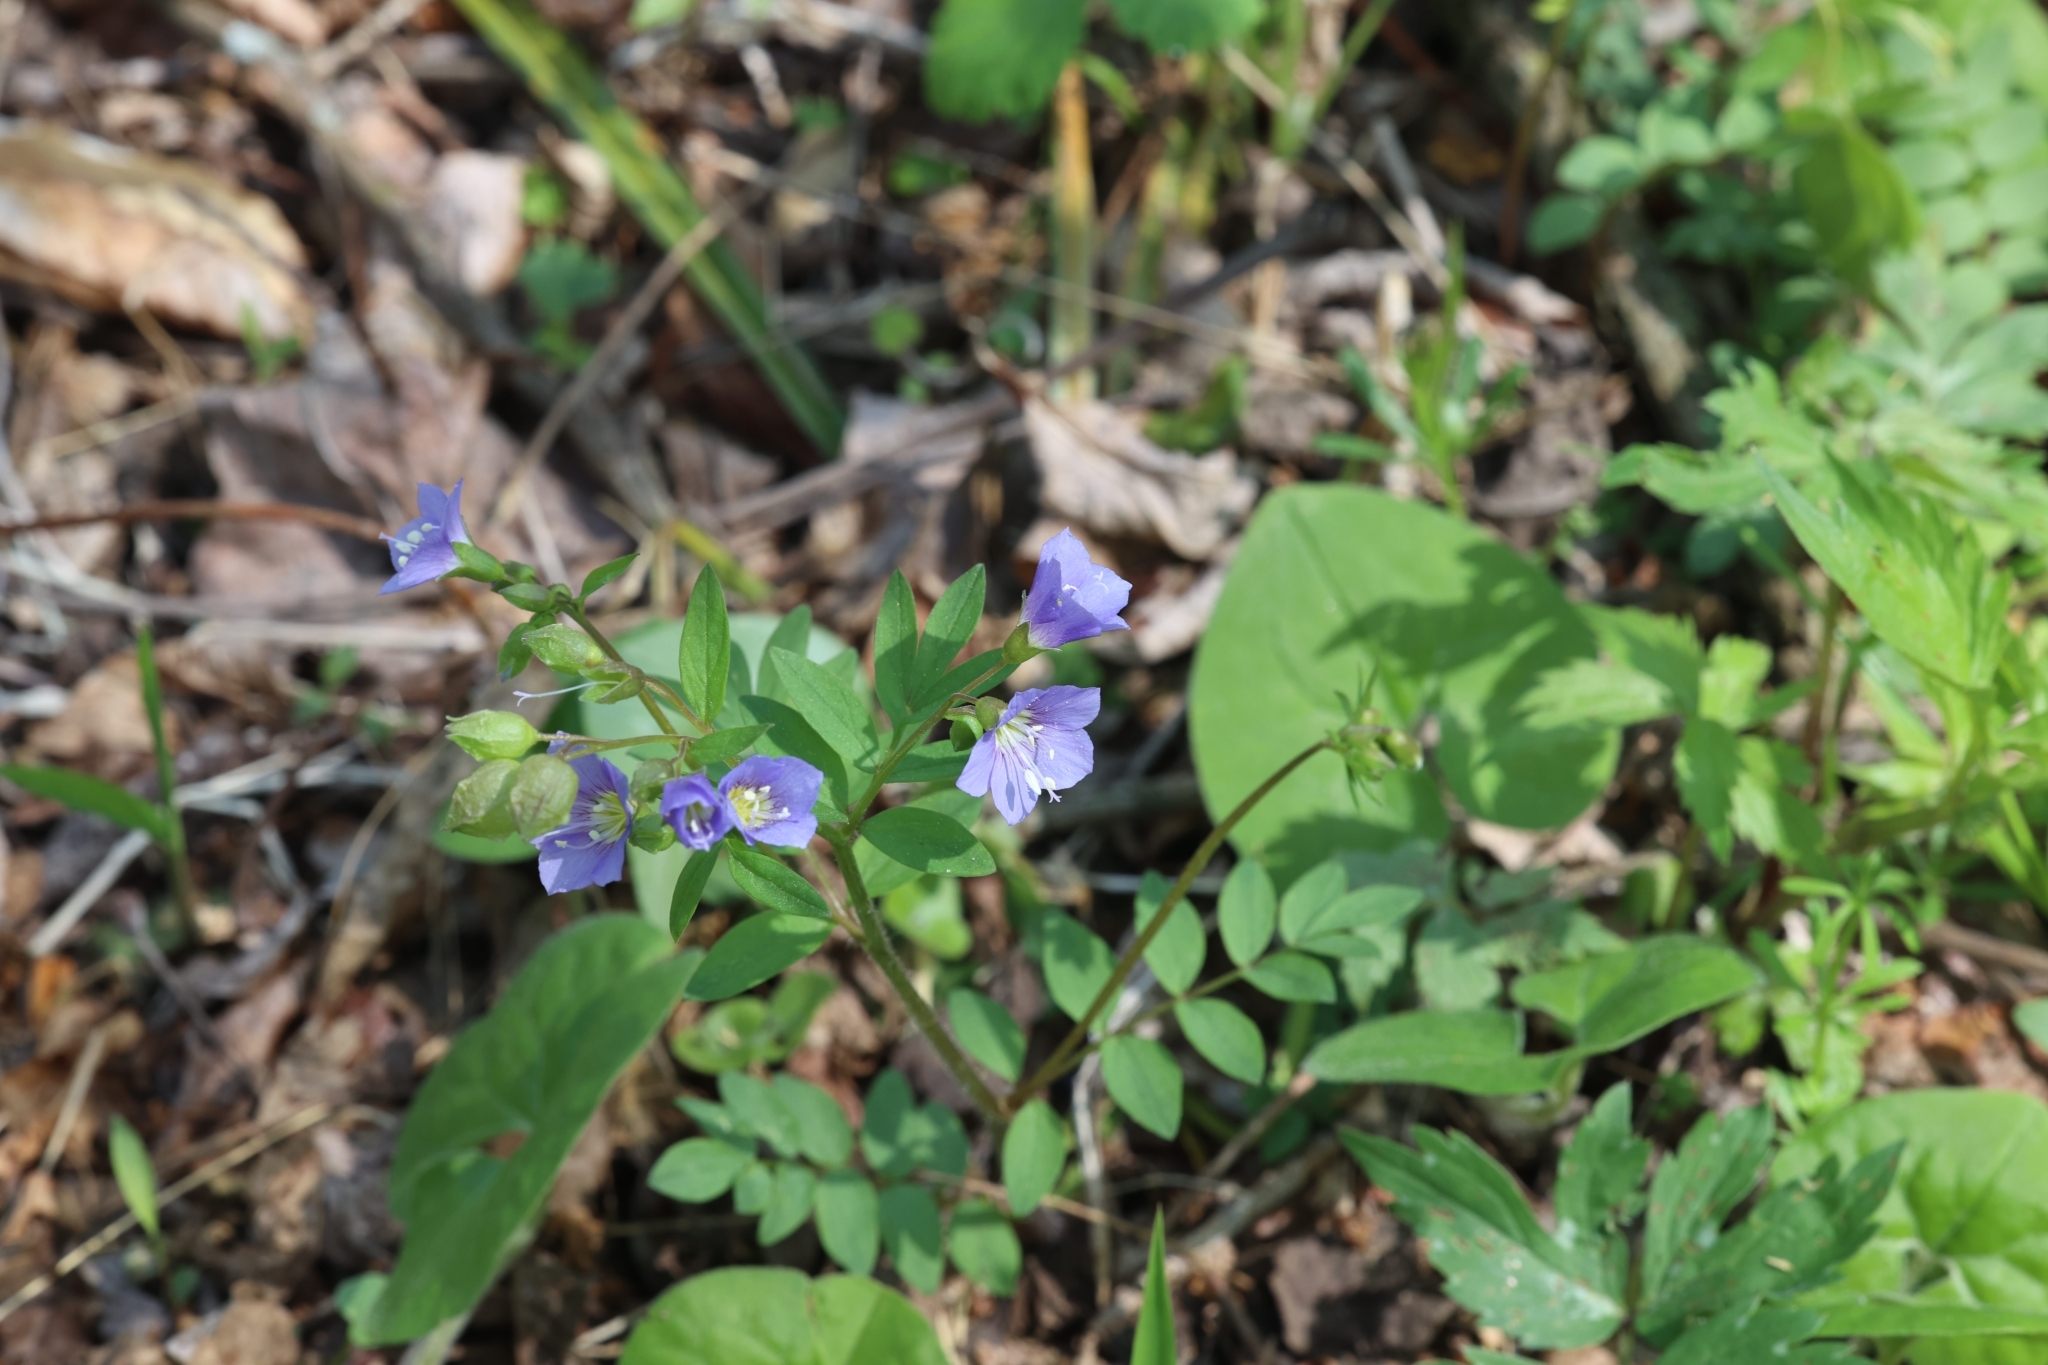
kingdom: Plantae
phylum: Tracheophyta
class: Magnoliopsida
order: Ericales
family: Polemoniaceae
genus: Polemonium
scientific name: Polemonium reptans
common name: Creeping jacob's-ladder
